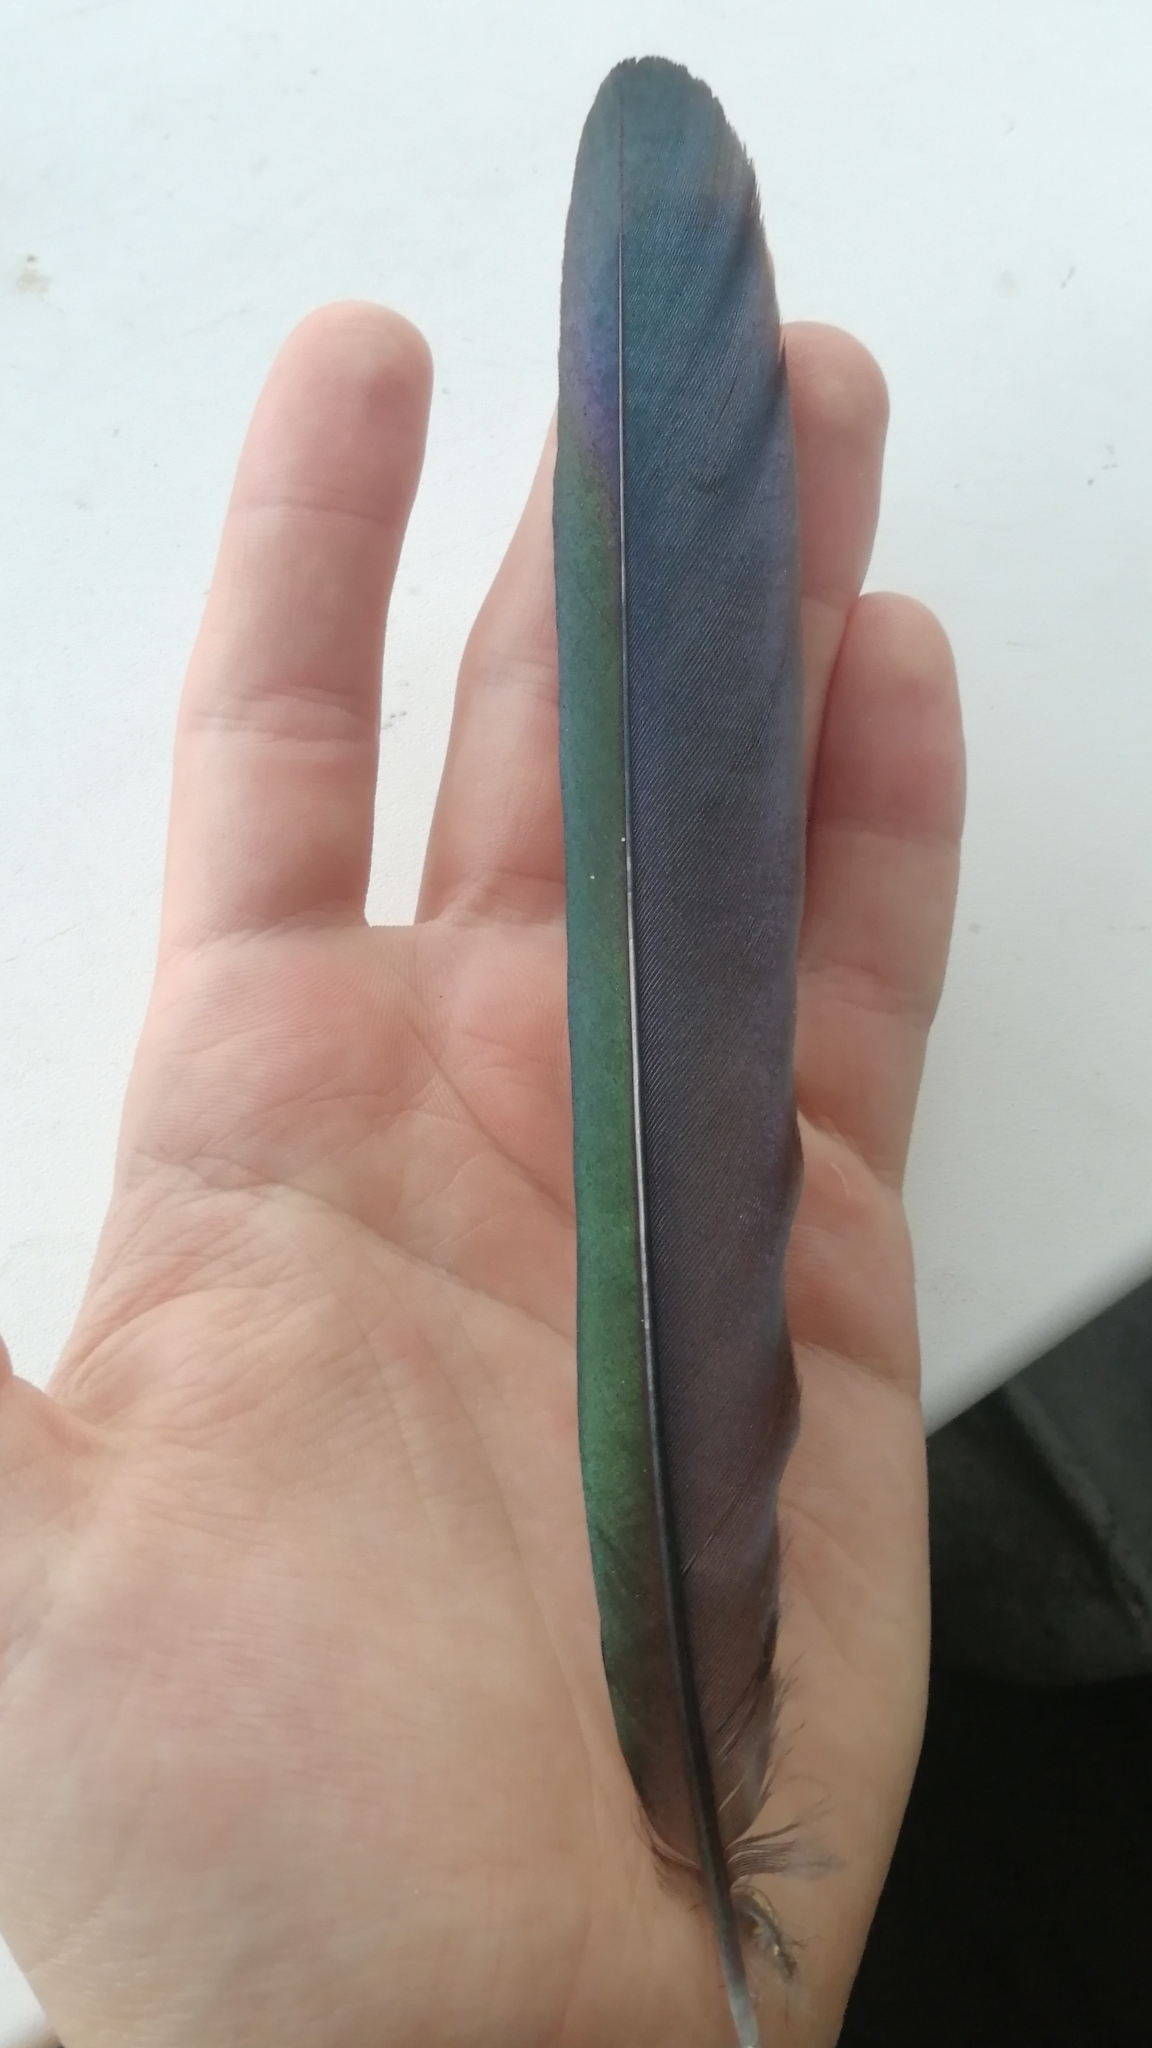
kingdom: Animalia
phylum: Chordata
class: Aves
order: Passeriformes
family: Corvidae
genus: Pica
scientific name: Pica pica
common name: Eurasian magpie
